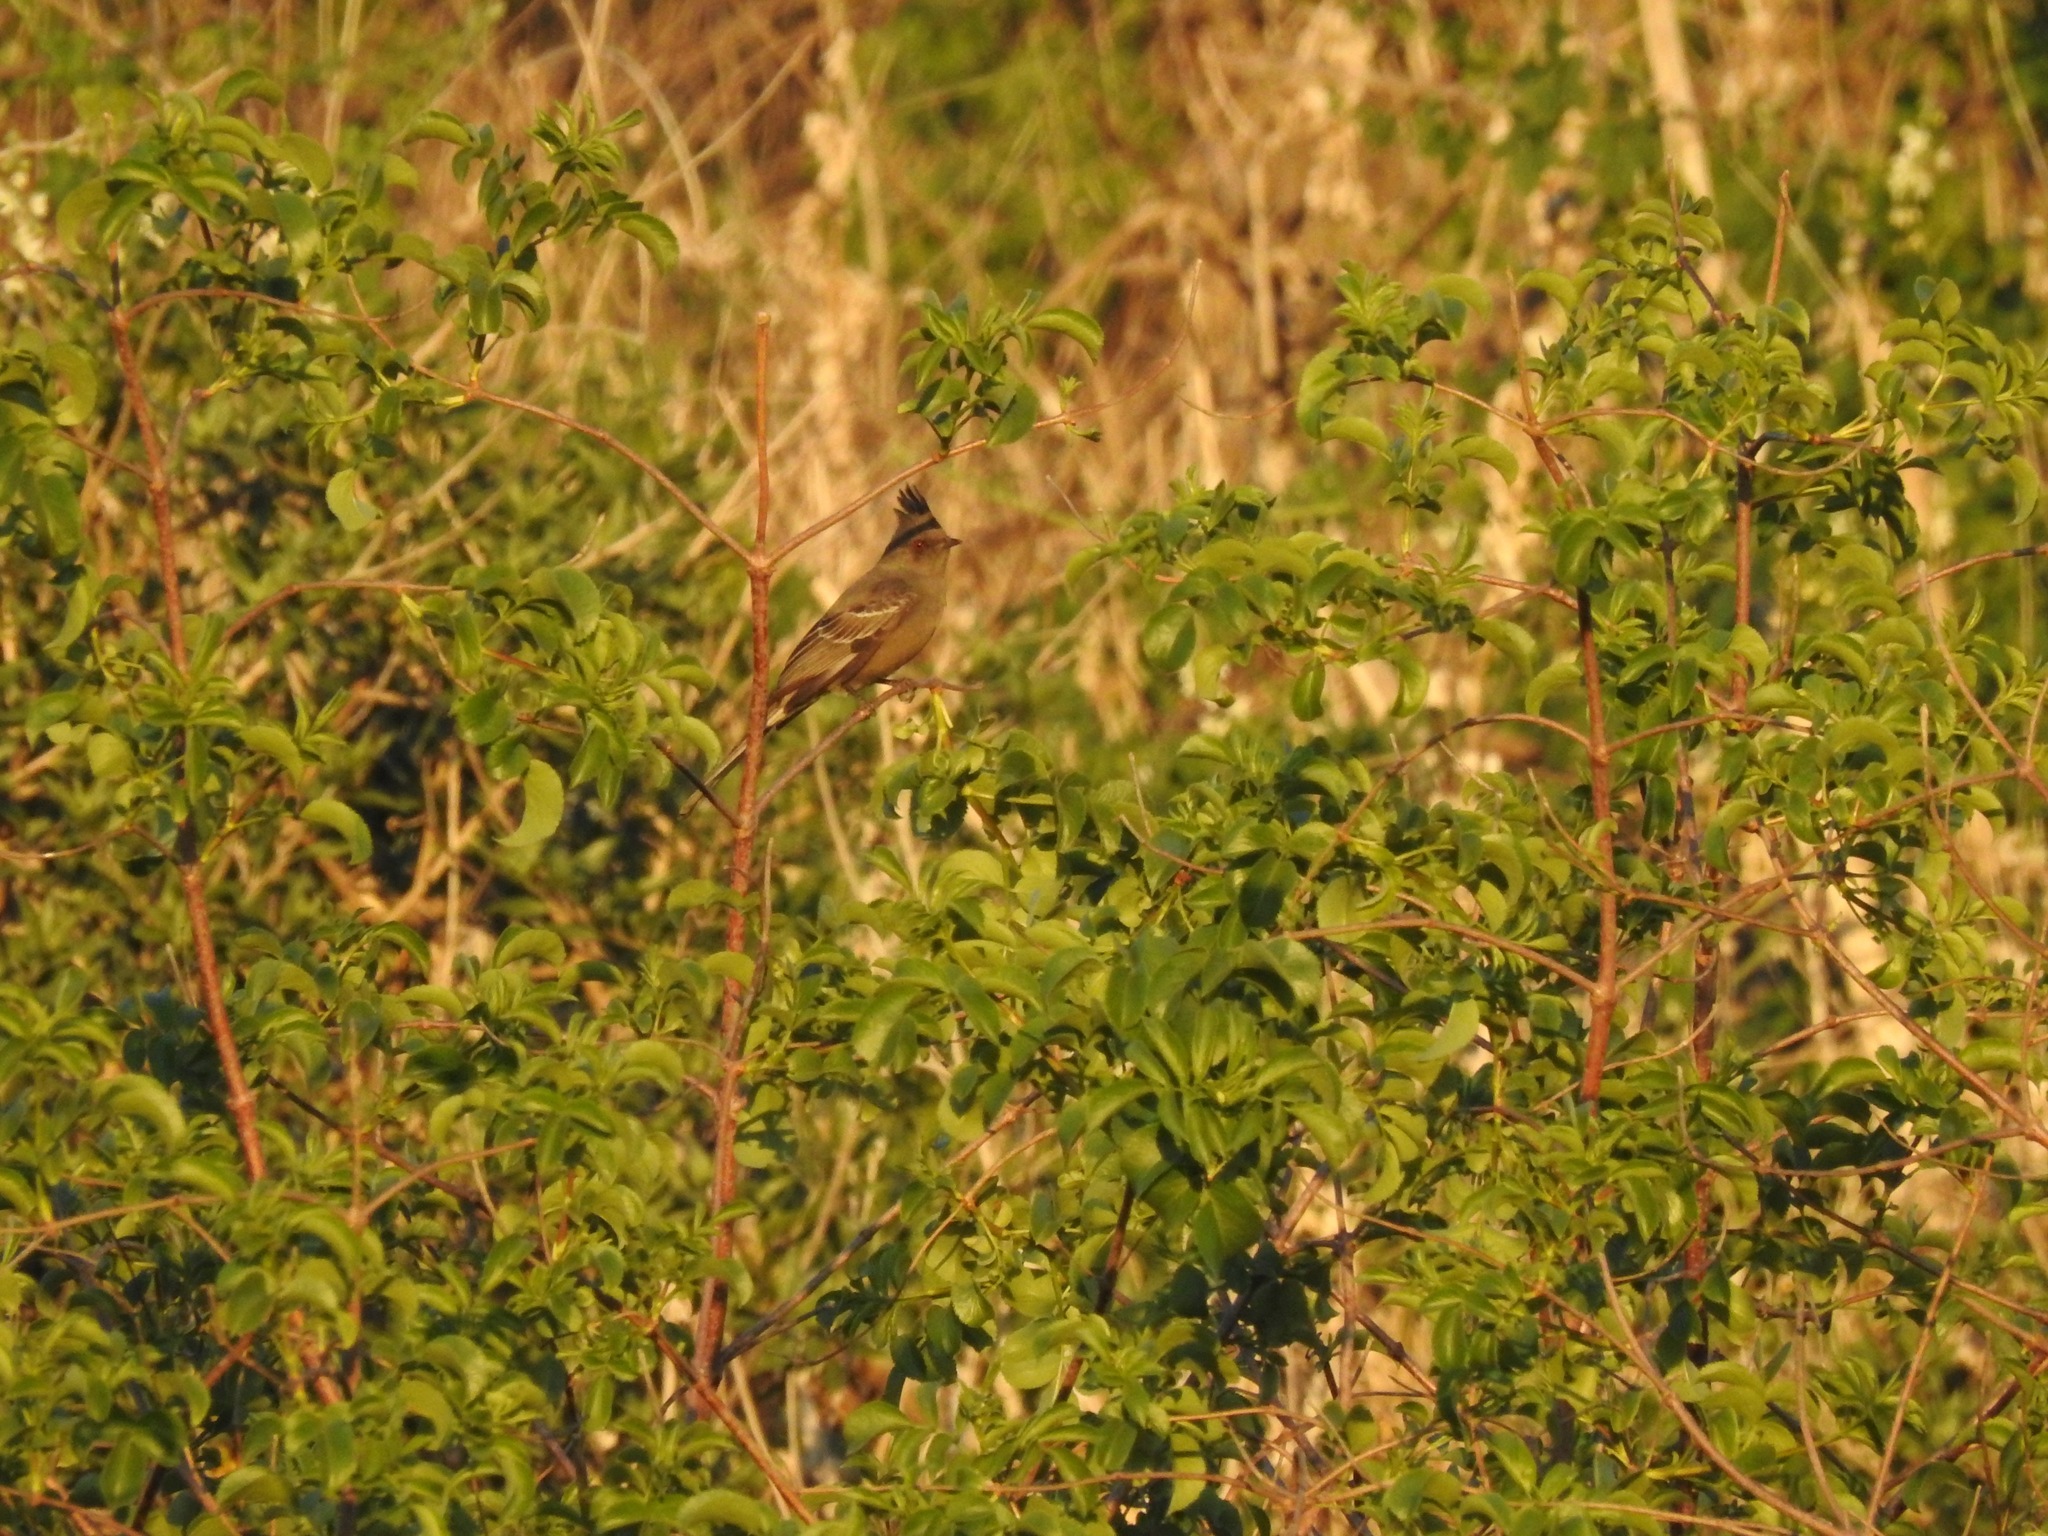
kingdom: Animalia
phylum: Chordata
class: Aves
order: Passeriformes
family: Ptilogonatidae
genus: Phainopepla
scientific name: Phainopepla nitens
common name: Phainopepla
